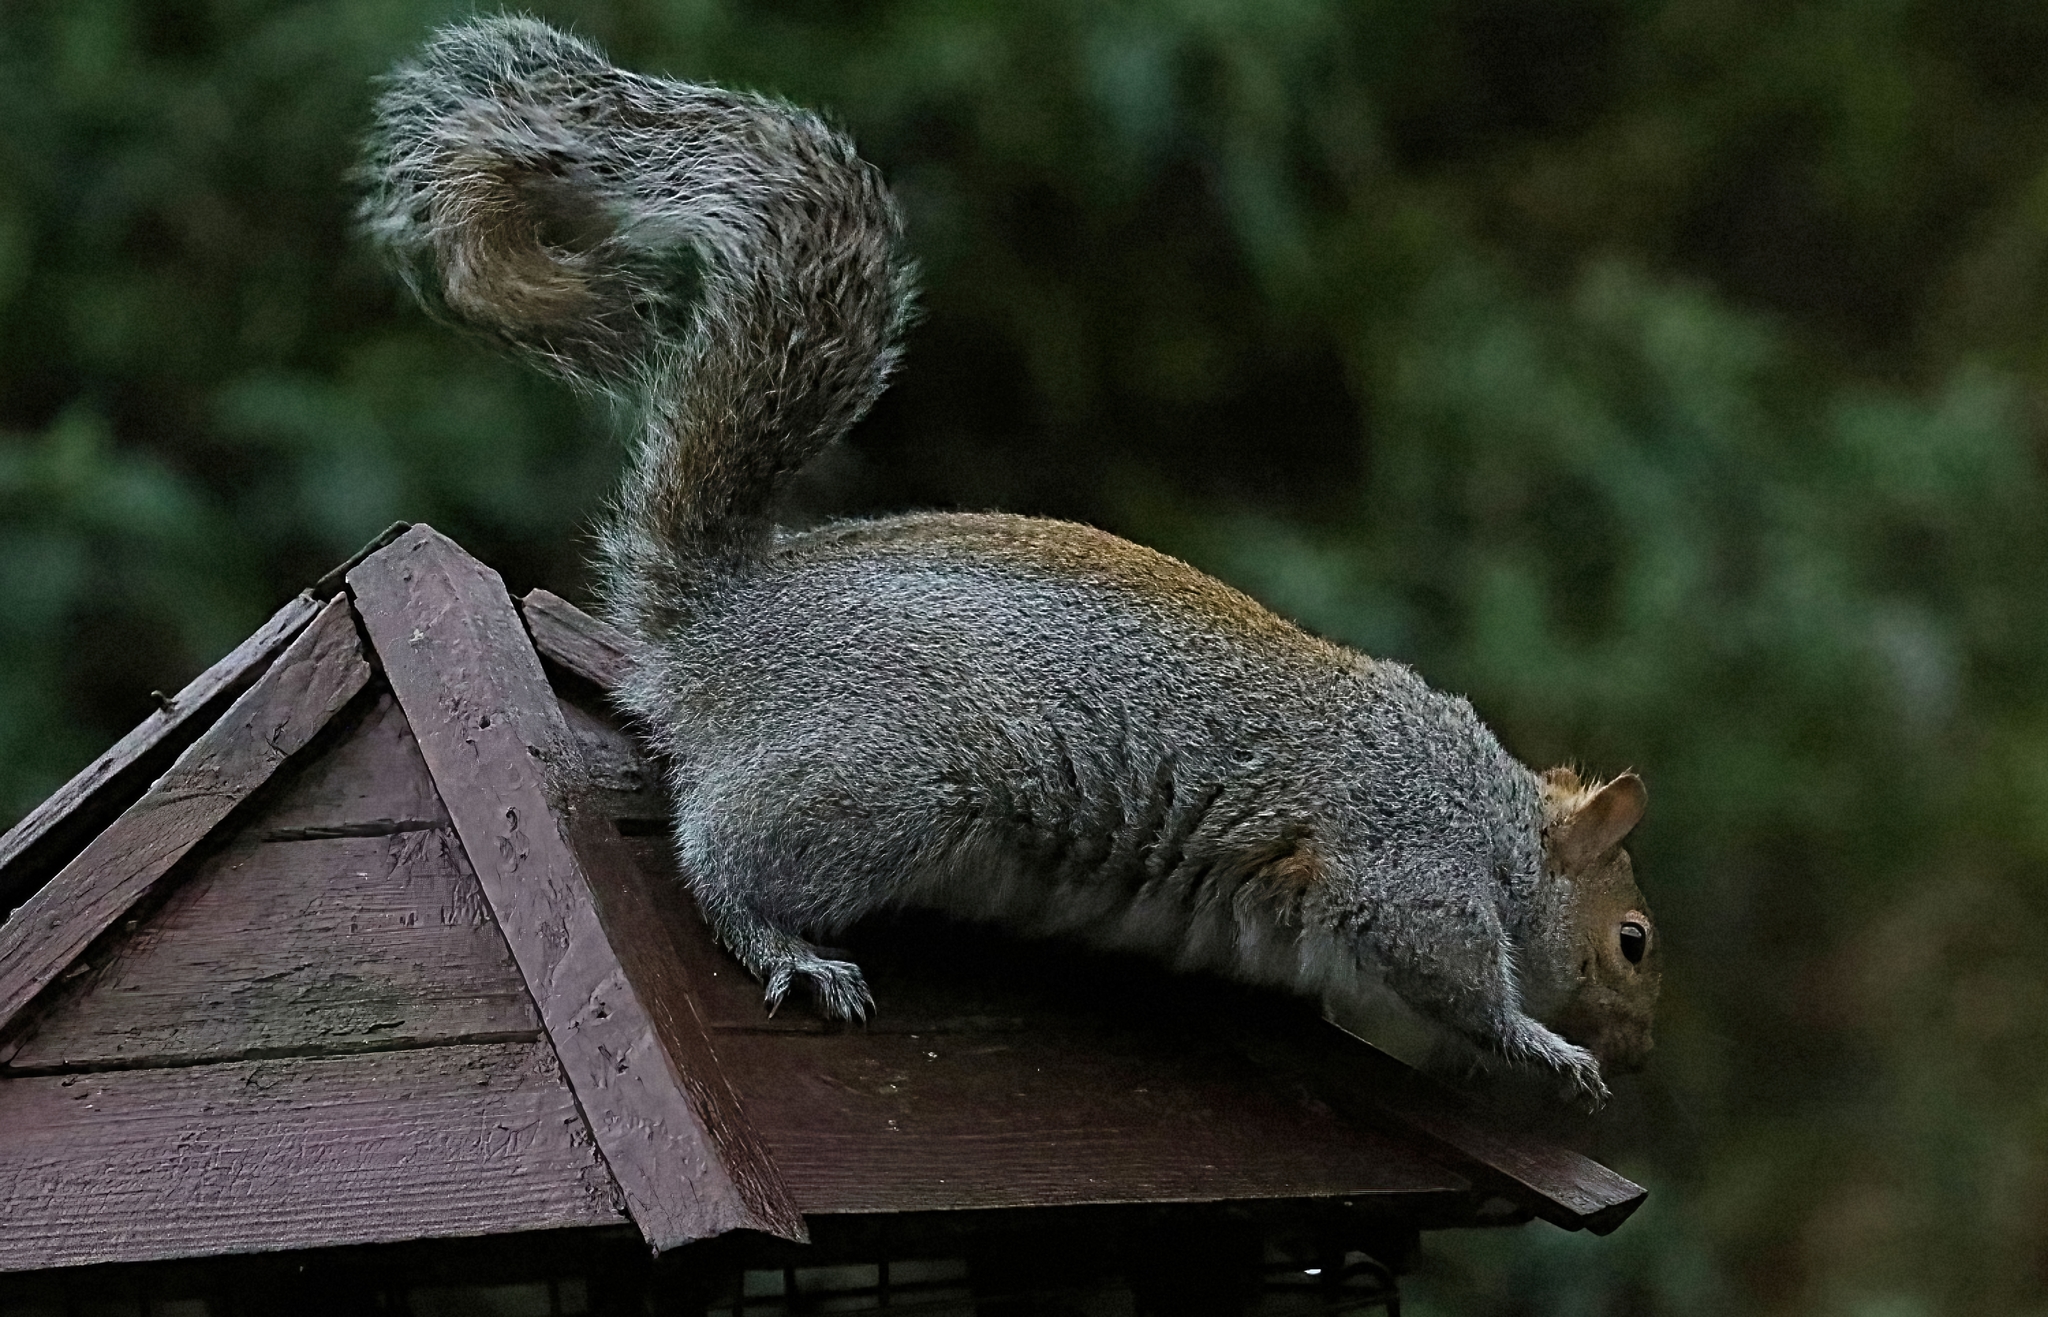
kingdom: Animalia
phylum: Chordata
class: Mammalia
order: Rodentia
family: Sciuridae
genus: Sciurus
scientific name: Sciurus carolinensis
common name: Eastern gray squirrel
